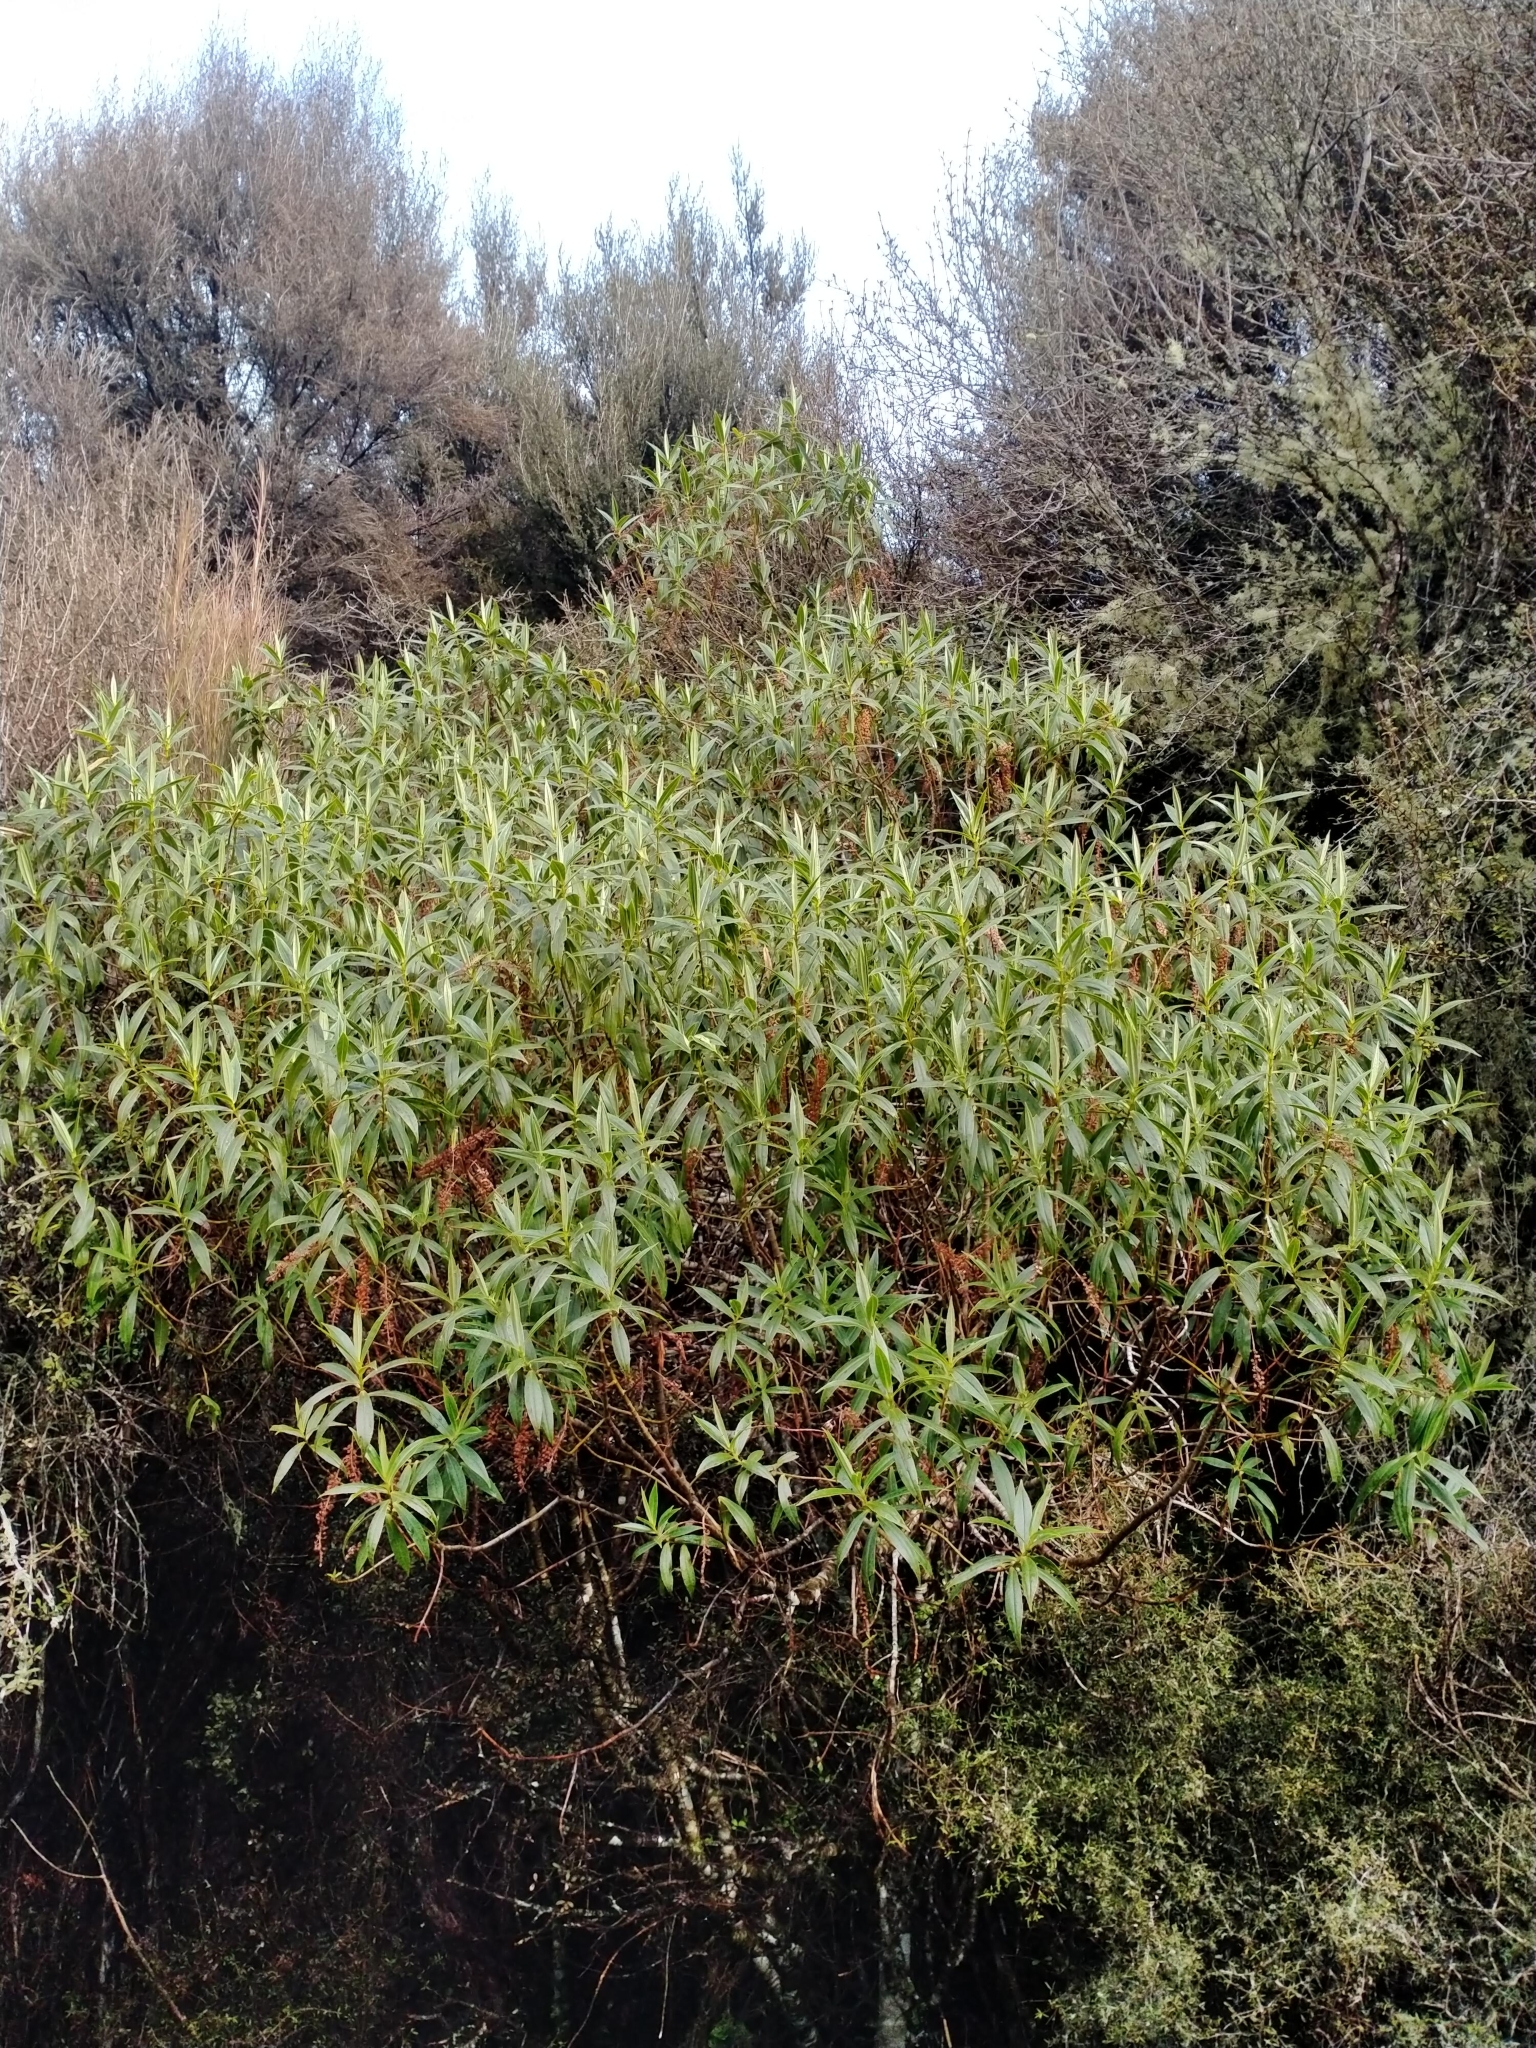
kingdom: Plantae
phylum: Tracheophyta
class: Magnoliopsida
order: Lamiales
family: Plantaginaceae
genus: Veronica
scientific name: Veronica salicifolia
